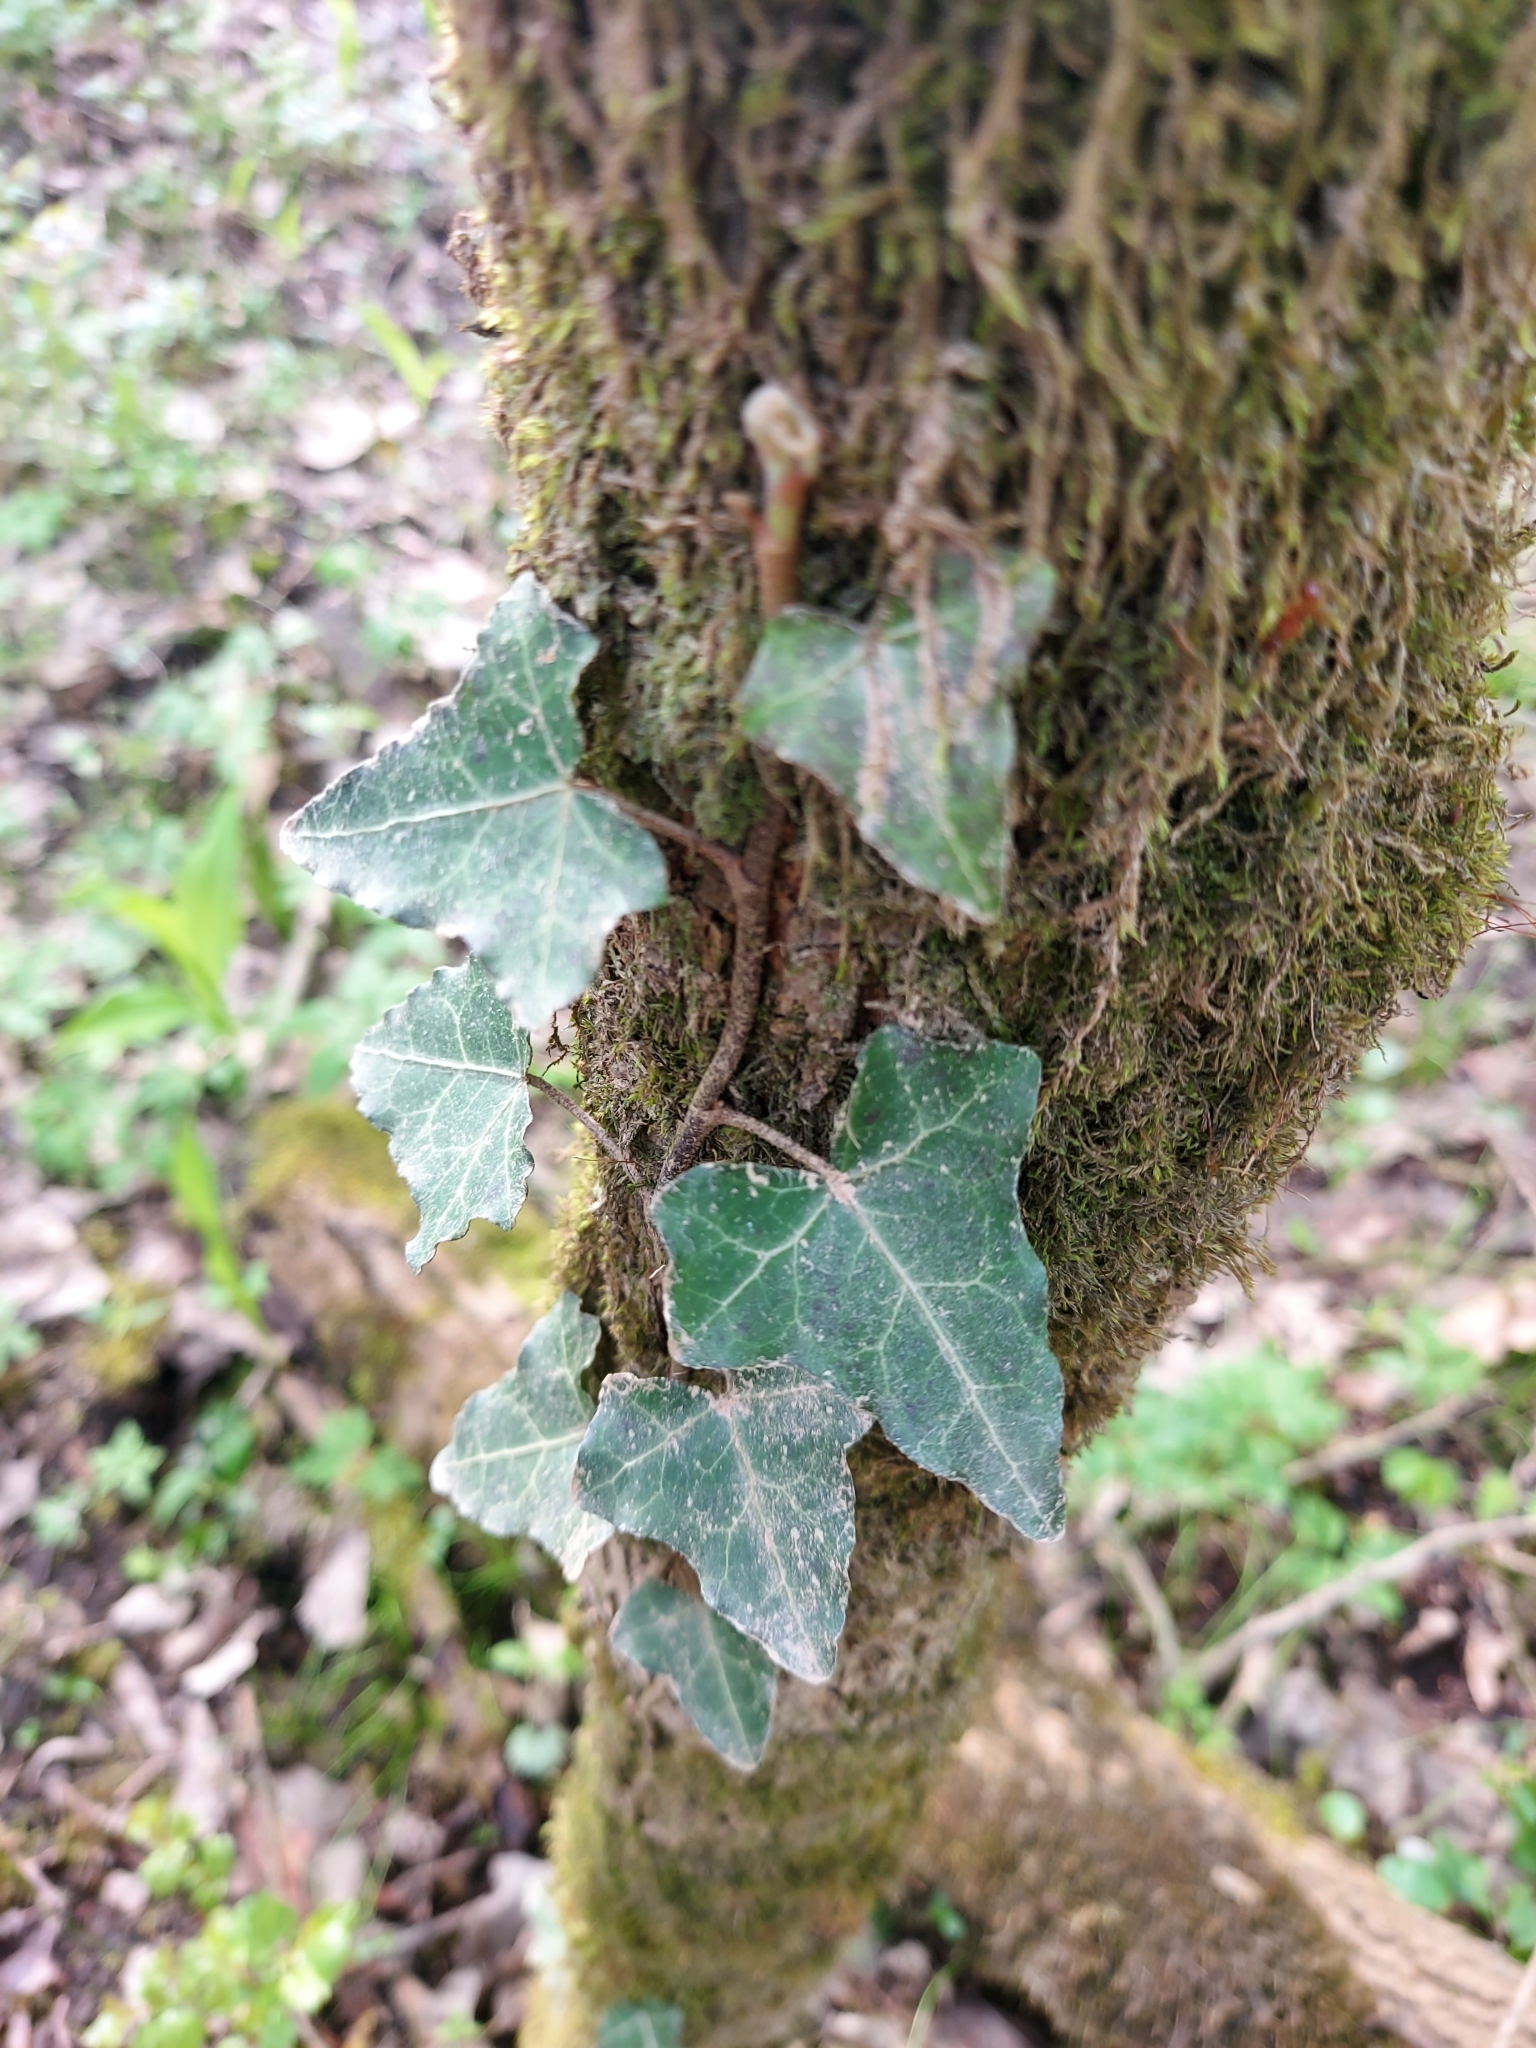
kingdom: Plantae
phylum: Tracheophyta
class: Magnoliopsida
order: Apiales
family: Araliaceae
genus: Hedera
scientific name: Hedera helix
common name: Ivy
